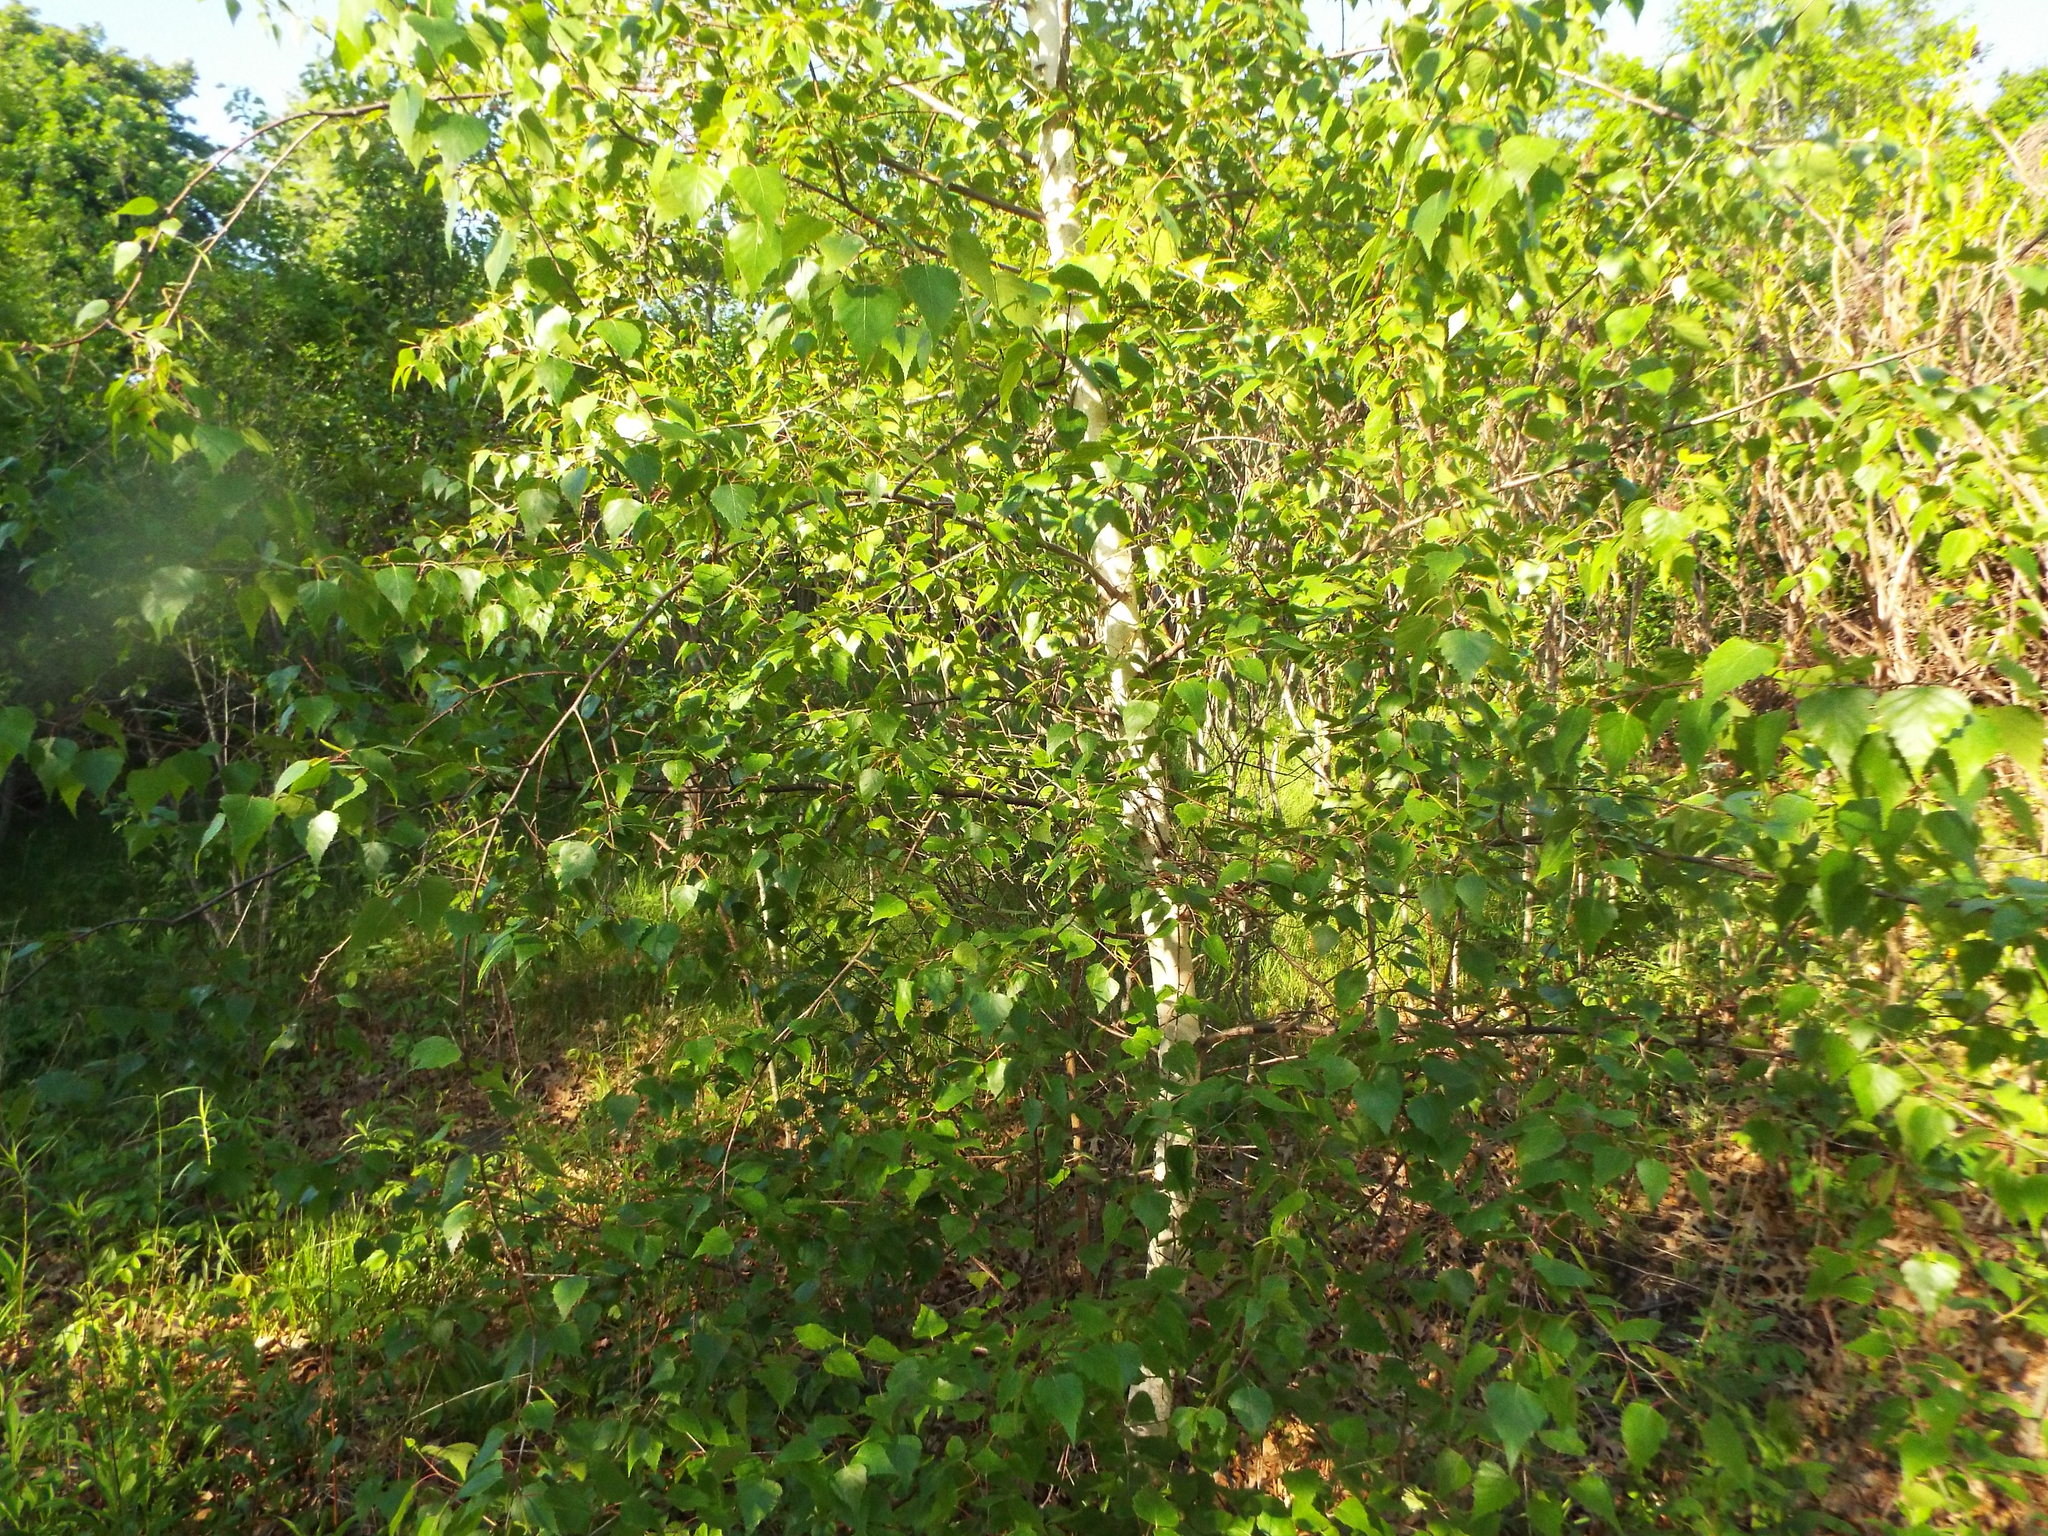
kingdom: Plantae
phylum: Tracheophyta
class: Magnoliopsida
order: Fagales
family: Betulaceae
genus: Betula
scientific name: Betula populifolia
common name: Fire birch
